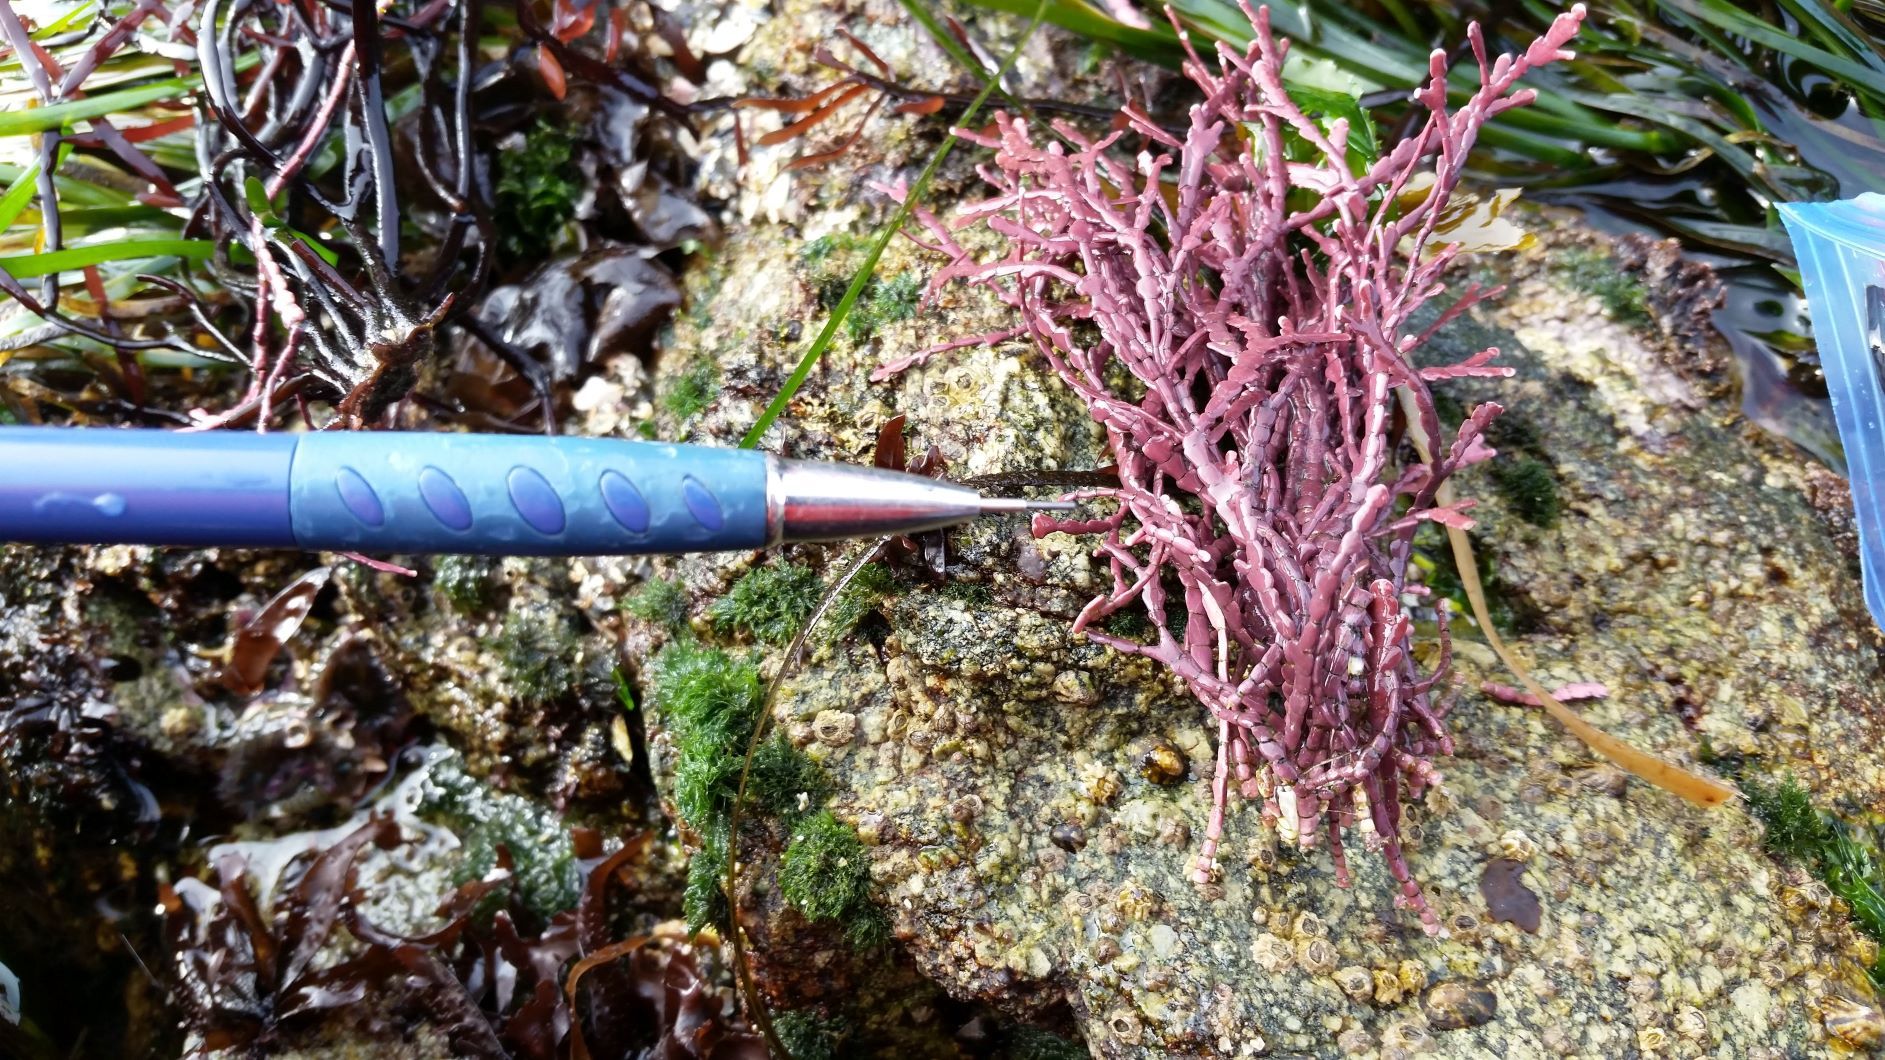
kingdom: Plantae
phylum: Rhodophyta
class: Florideophyceae
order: Corallinales
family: Corallinaceae
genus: Calliarthron
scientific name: Calliarthron tuberculosum
